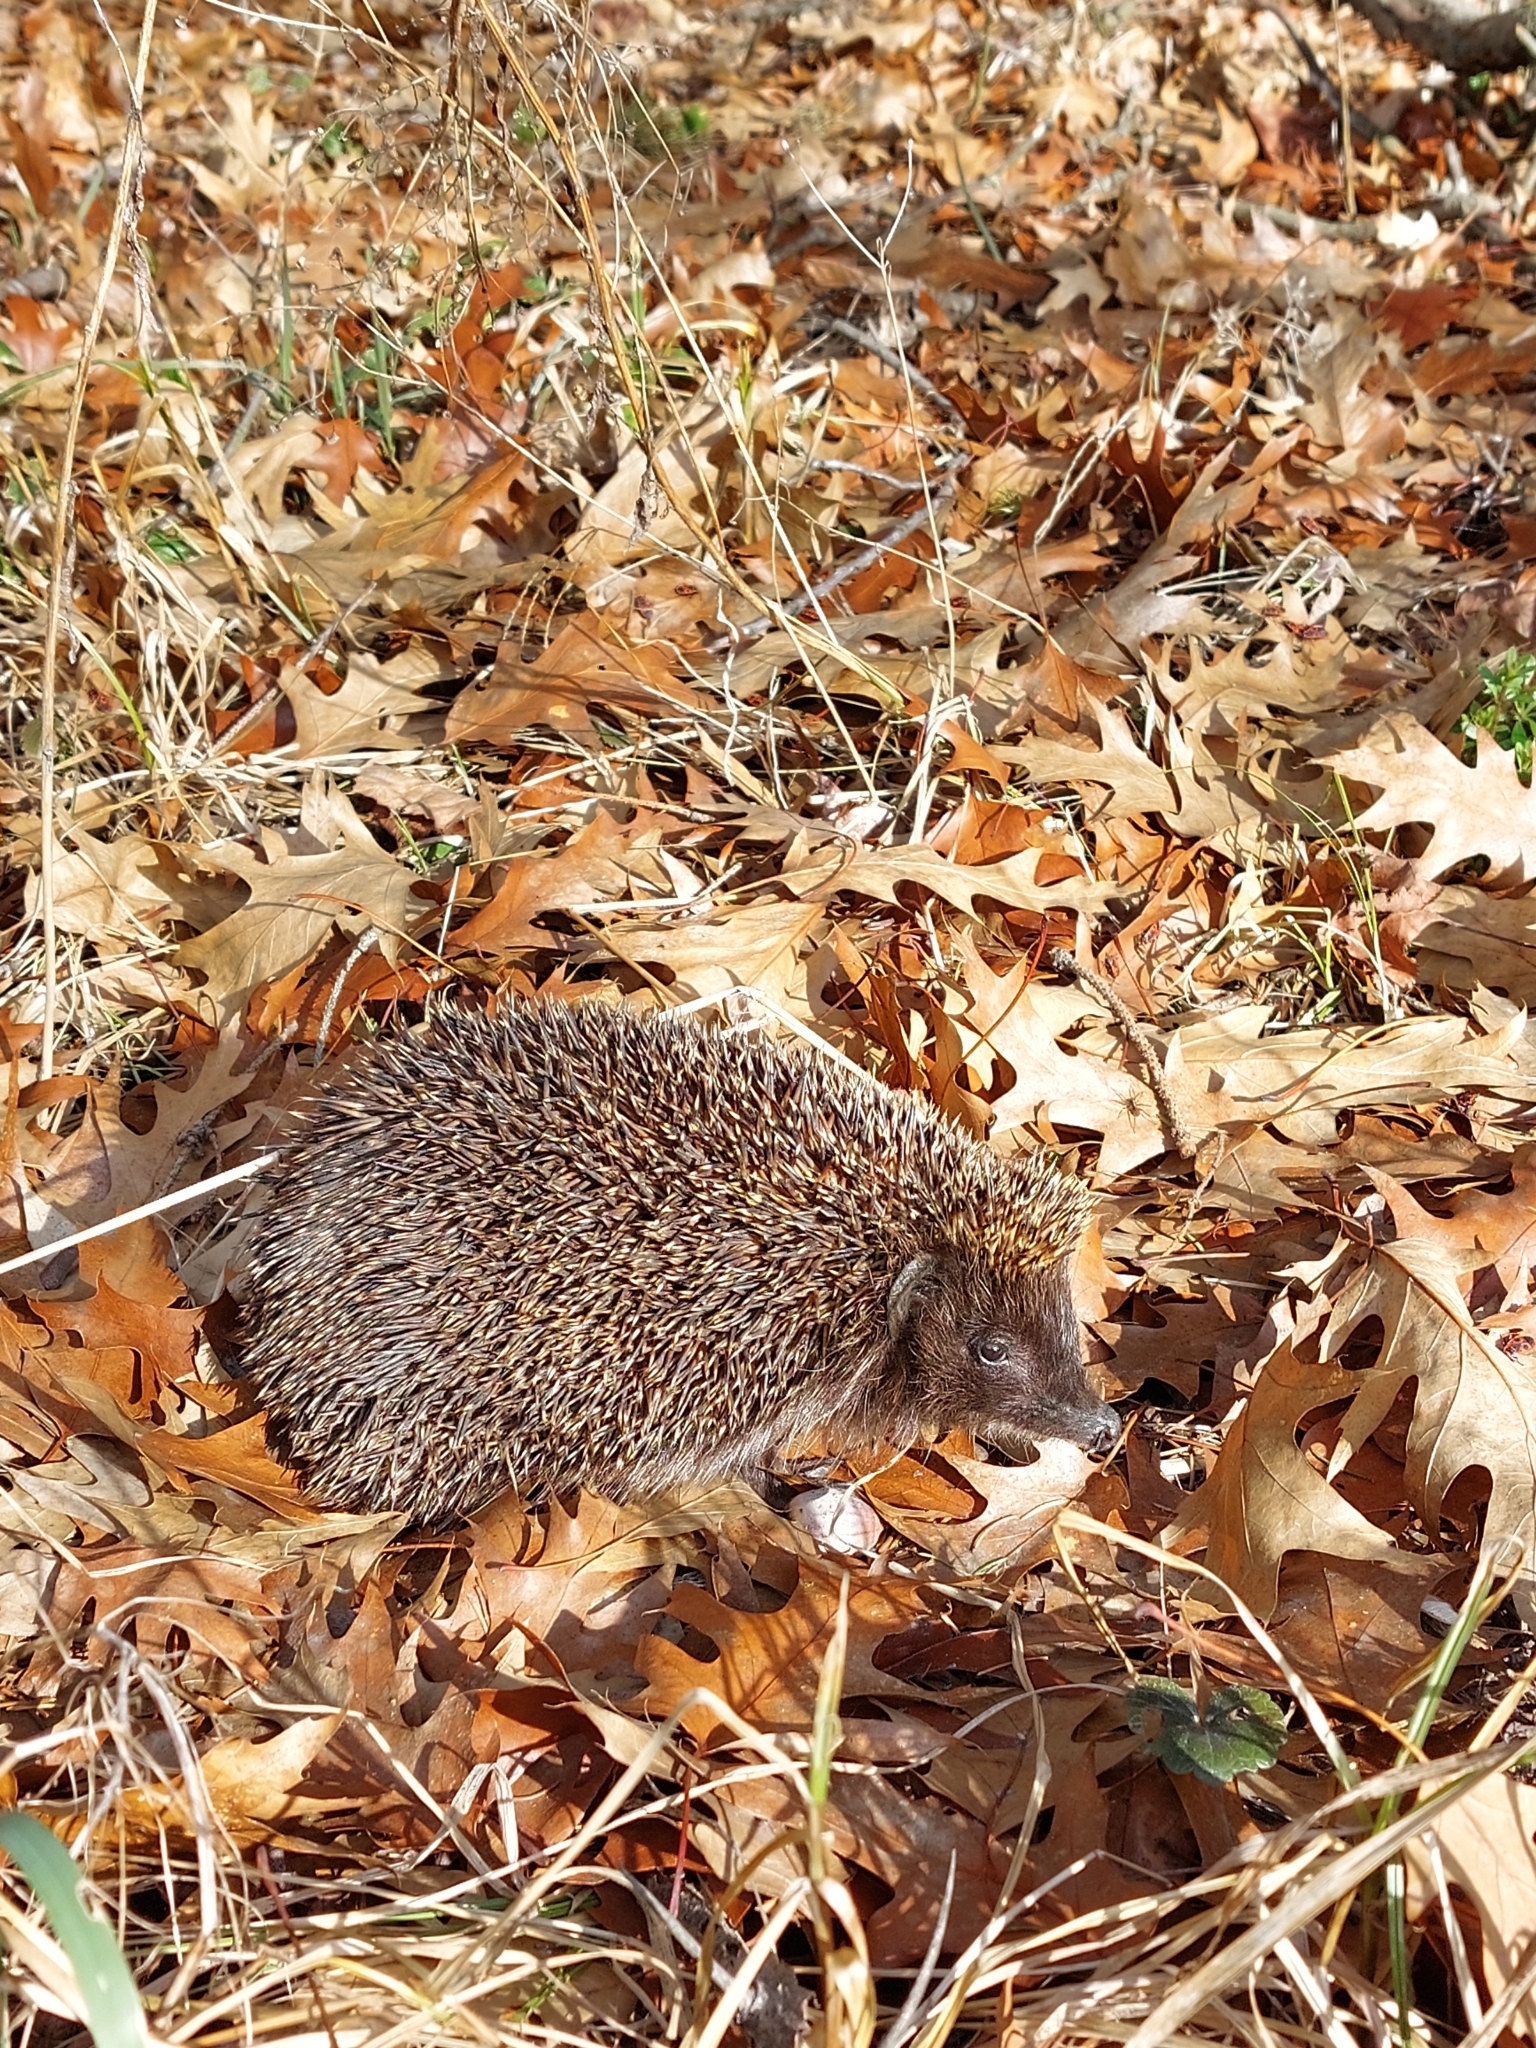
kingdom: Animalia
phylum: Chordata
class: Mammalia
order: Erinaceomorpha
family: Erinaceidae
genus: Erinaceus
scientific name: Erinaceus roumanicus
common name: Northern white-breasted hedgehog
